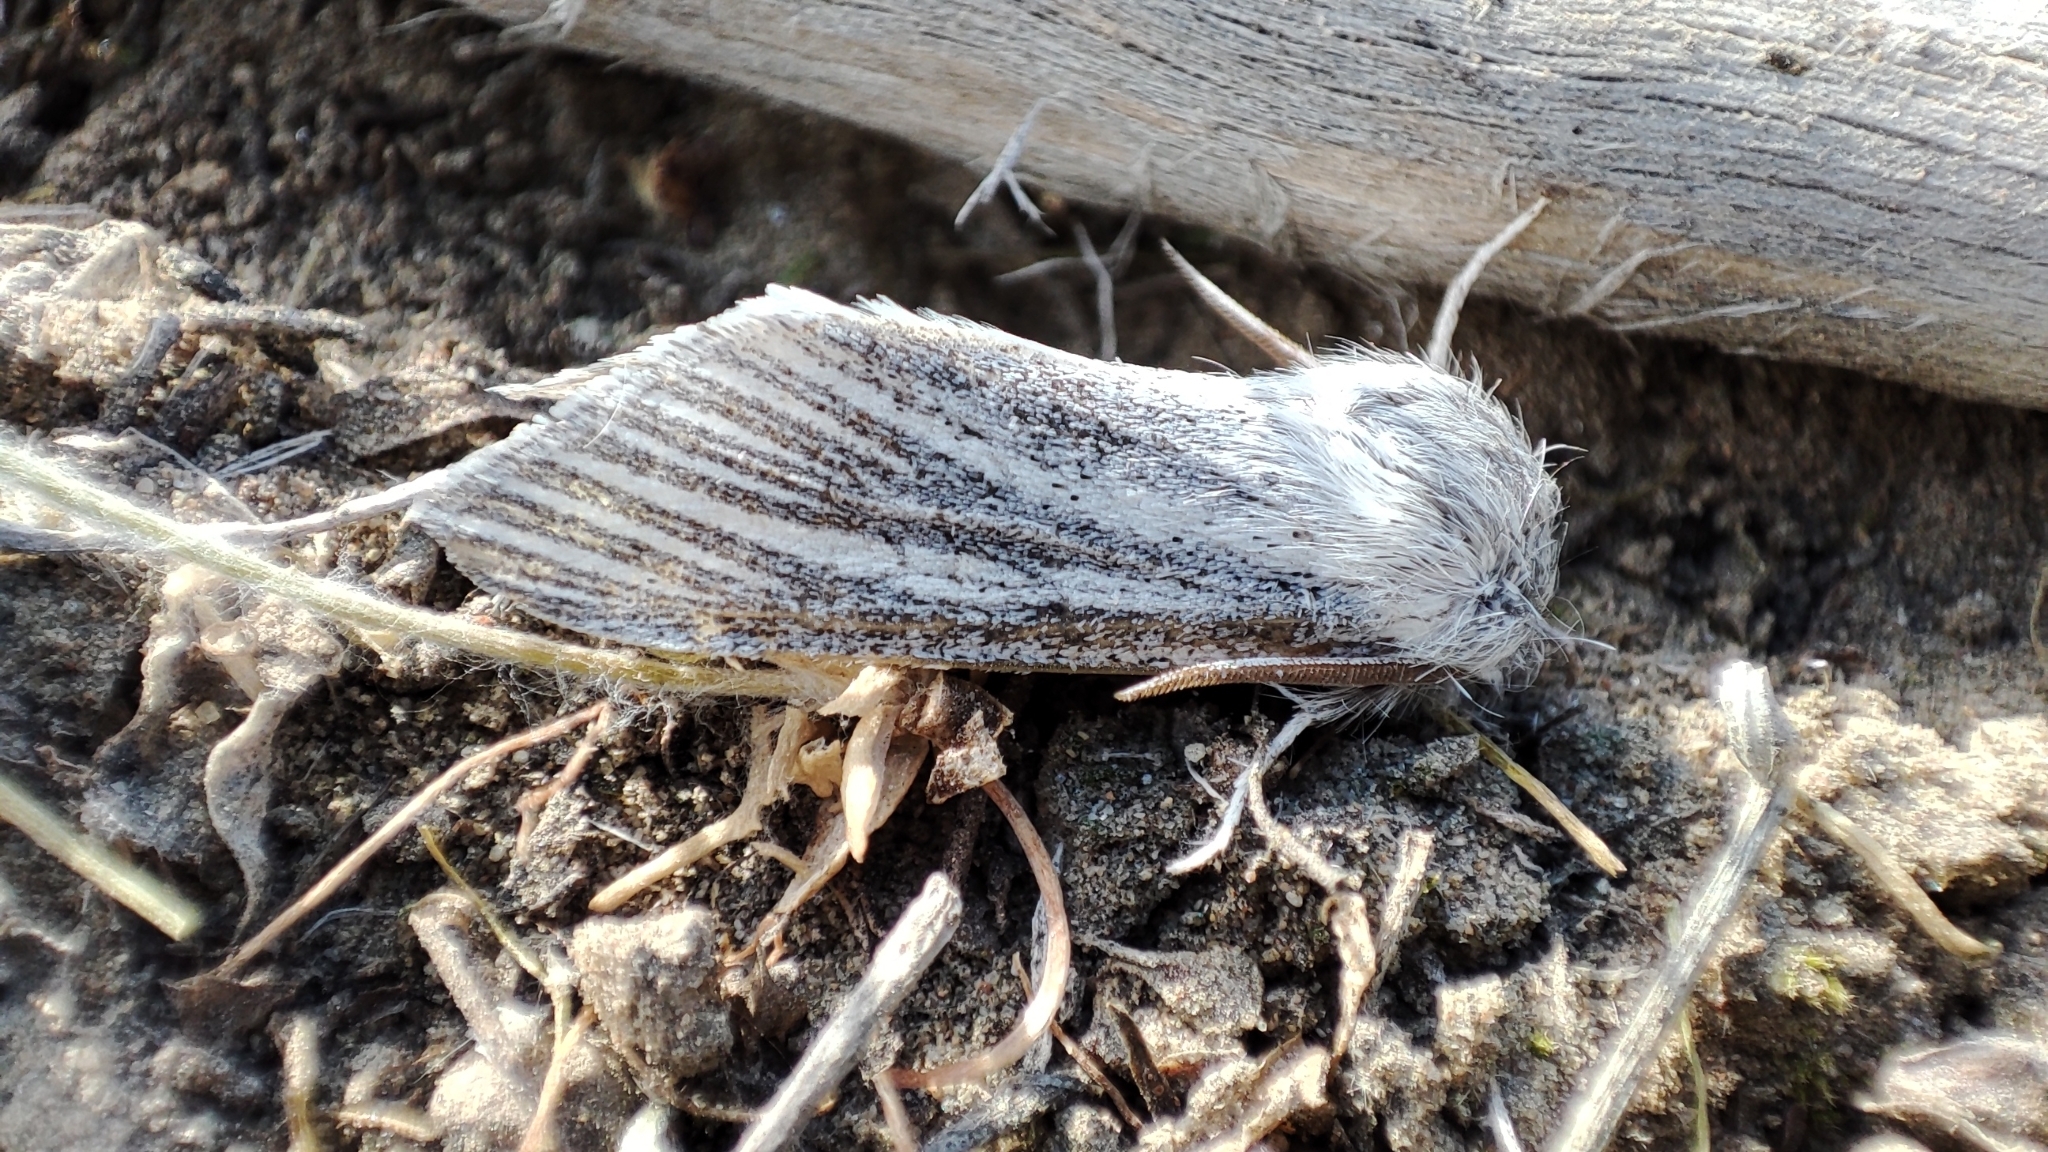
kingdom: Animalia
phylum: Arthropoda
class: Insecta
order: Lepidoptera
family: Noctuidae
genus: Acronicta
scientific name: Acronicta nervosa
